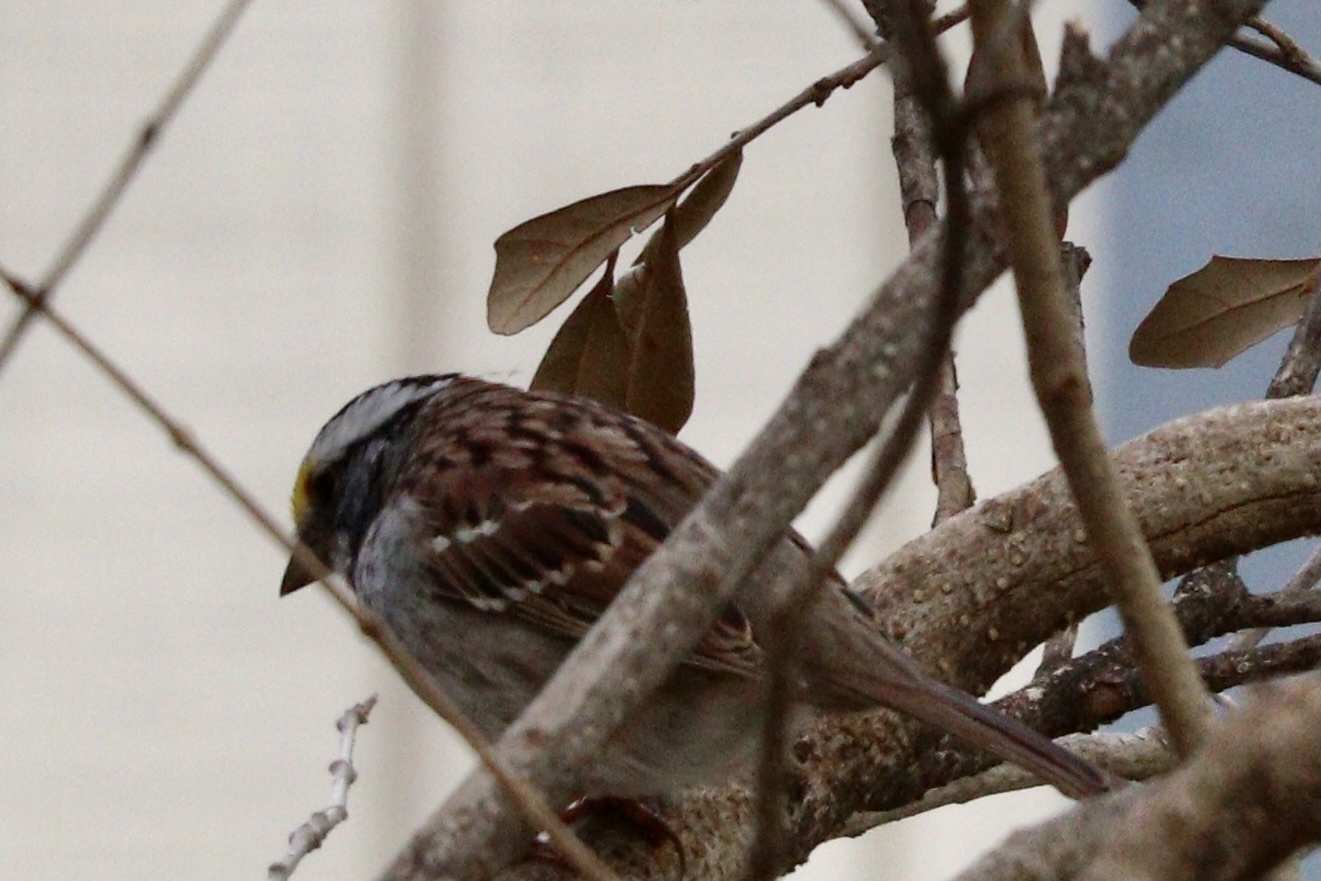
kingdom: Animalia
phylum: Chordata
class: Aves
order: Passeriformes
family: Passerellidae
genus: Zonotrichia
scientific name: Zonotrichia albicollis
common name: White-throated sparrow
